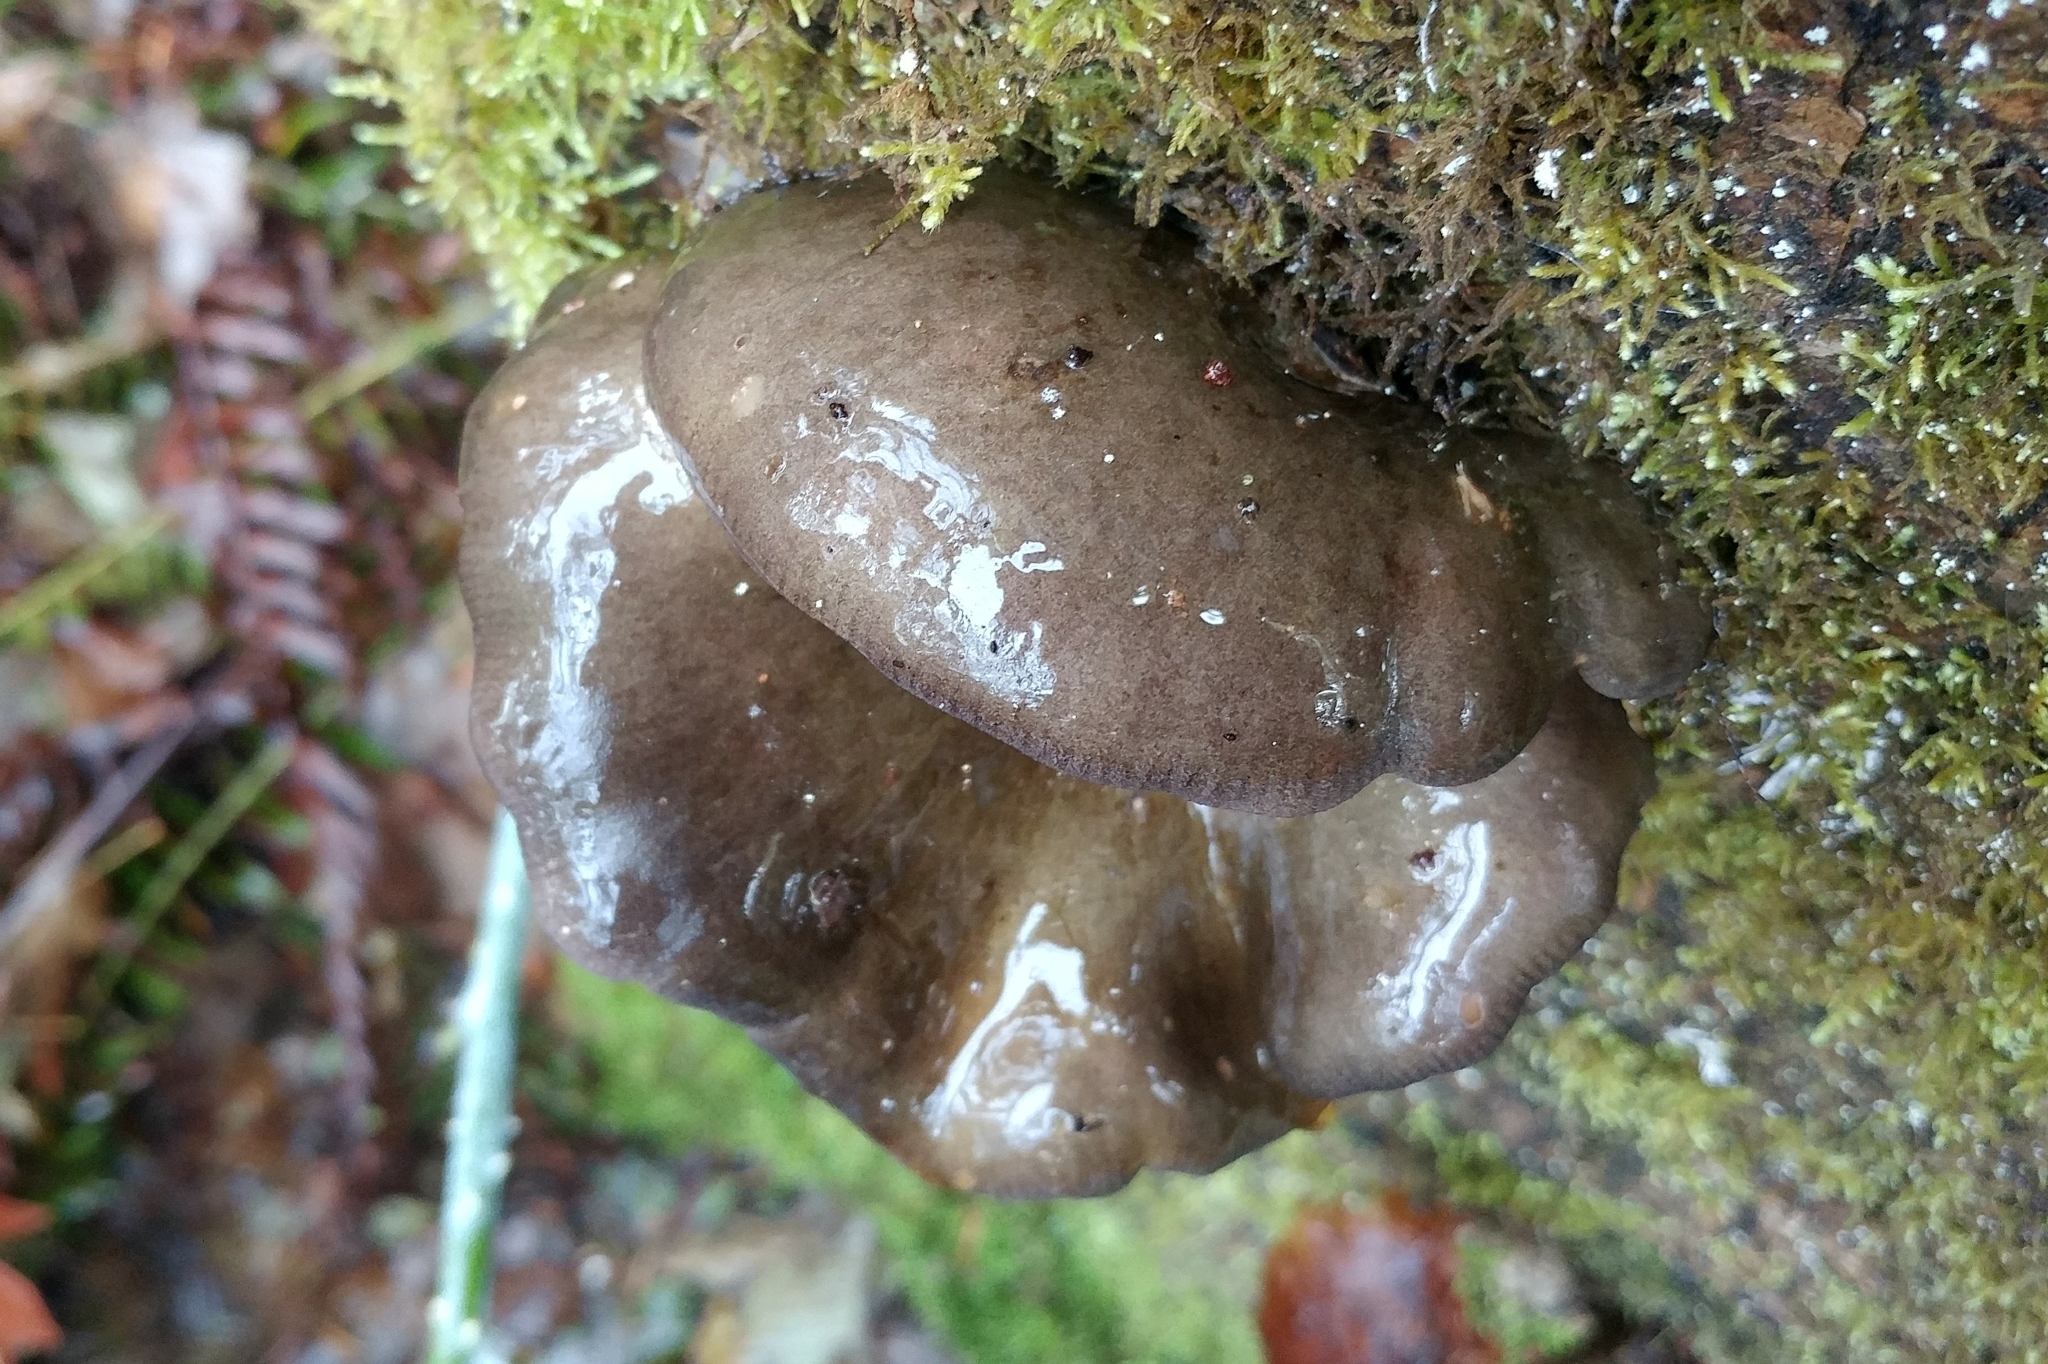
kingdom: Fungi
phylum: Basidiomycota
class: Agaricomycetes
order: Agaricales
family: Sarcomyxaceae
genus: Sarcomyxa
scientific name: Sarcomyxa serotina
